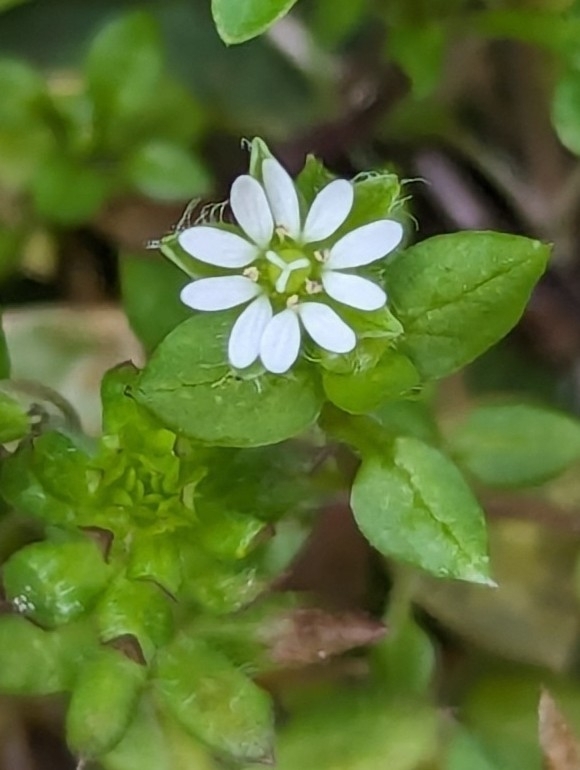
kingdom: Plantae
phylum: Tracheophyta
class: Magnoliopsida
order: Caryophyllales
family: Caryophyllaceae
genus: Stellaria
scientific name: Stellaria media
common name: Common chickweed
